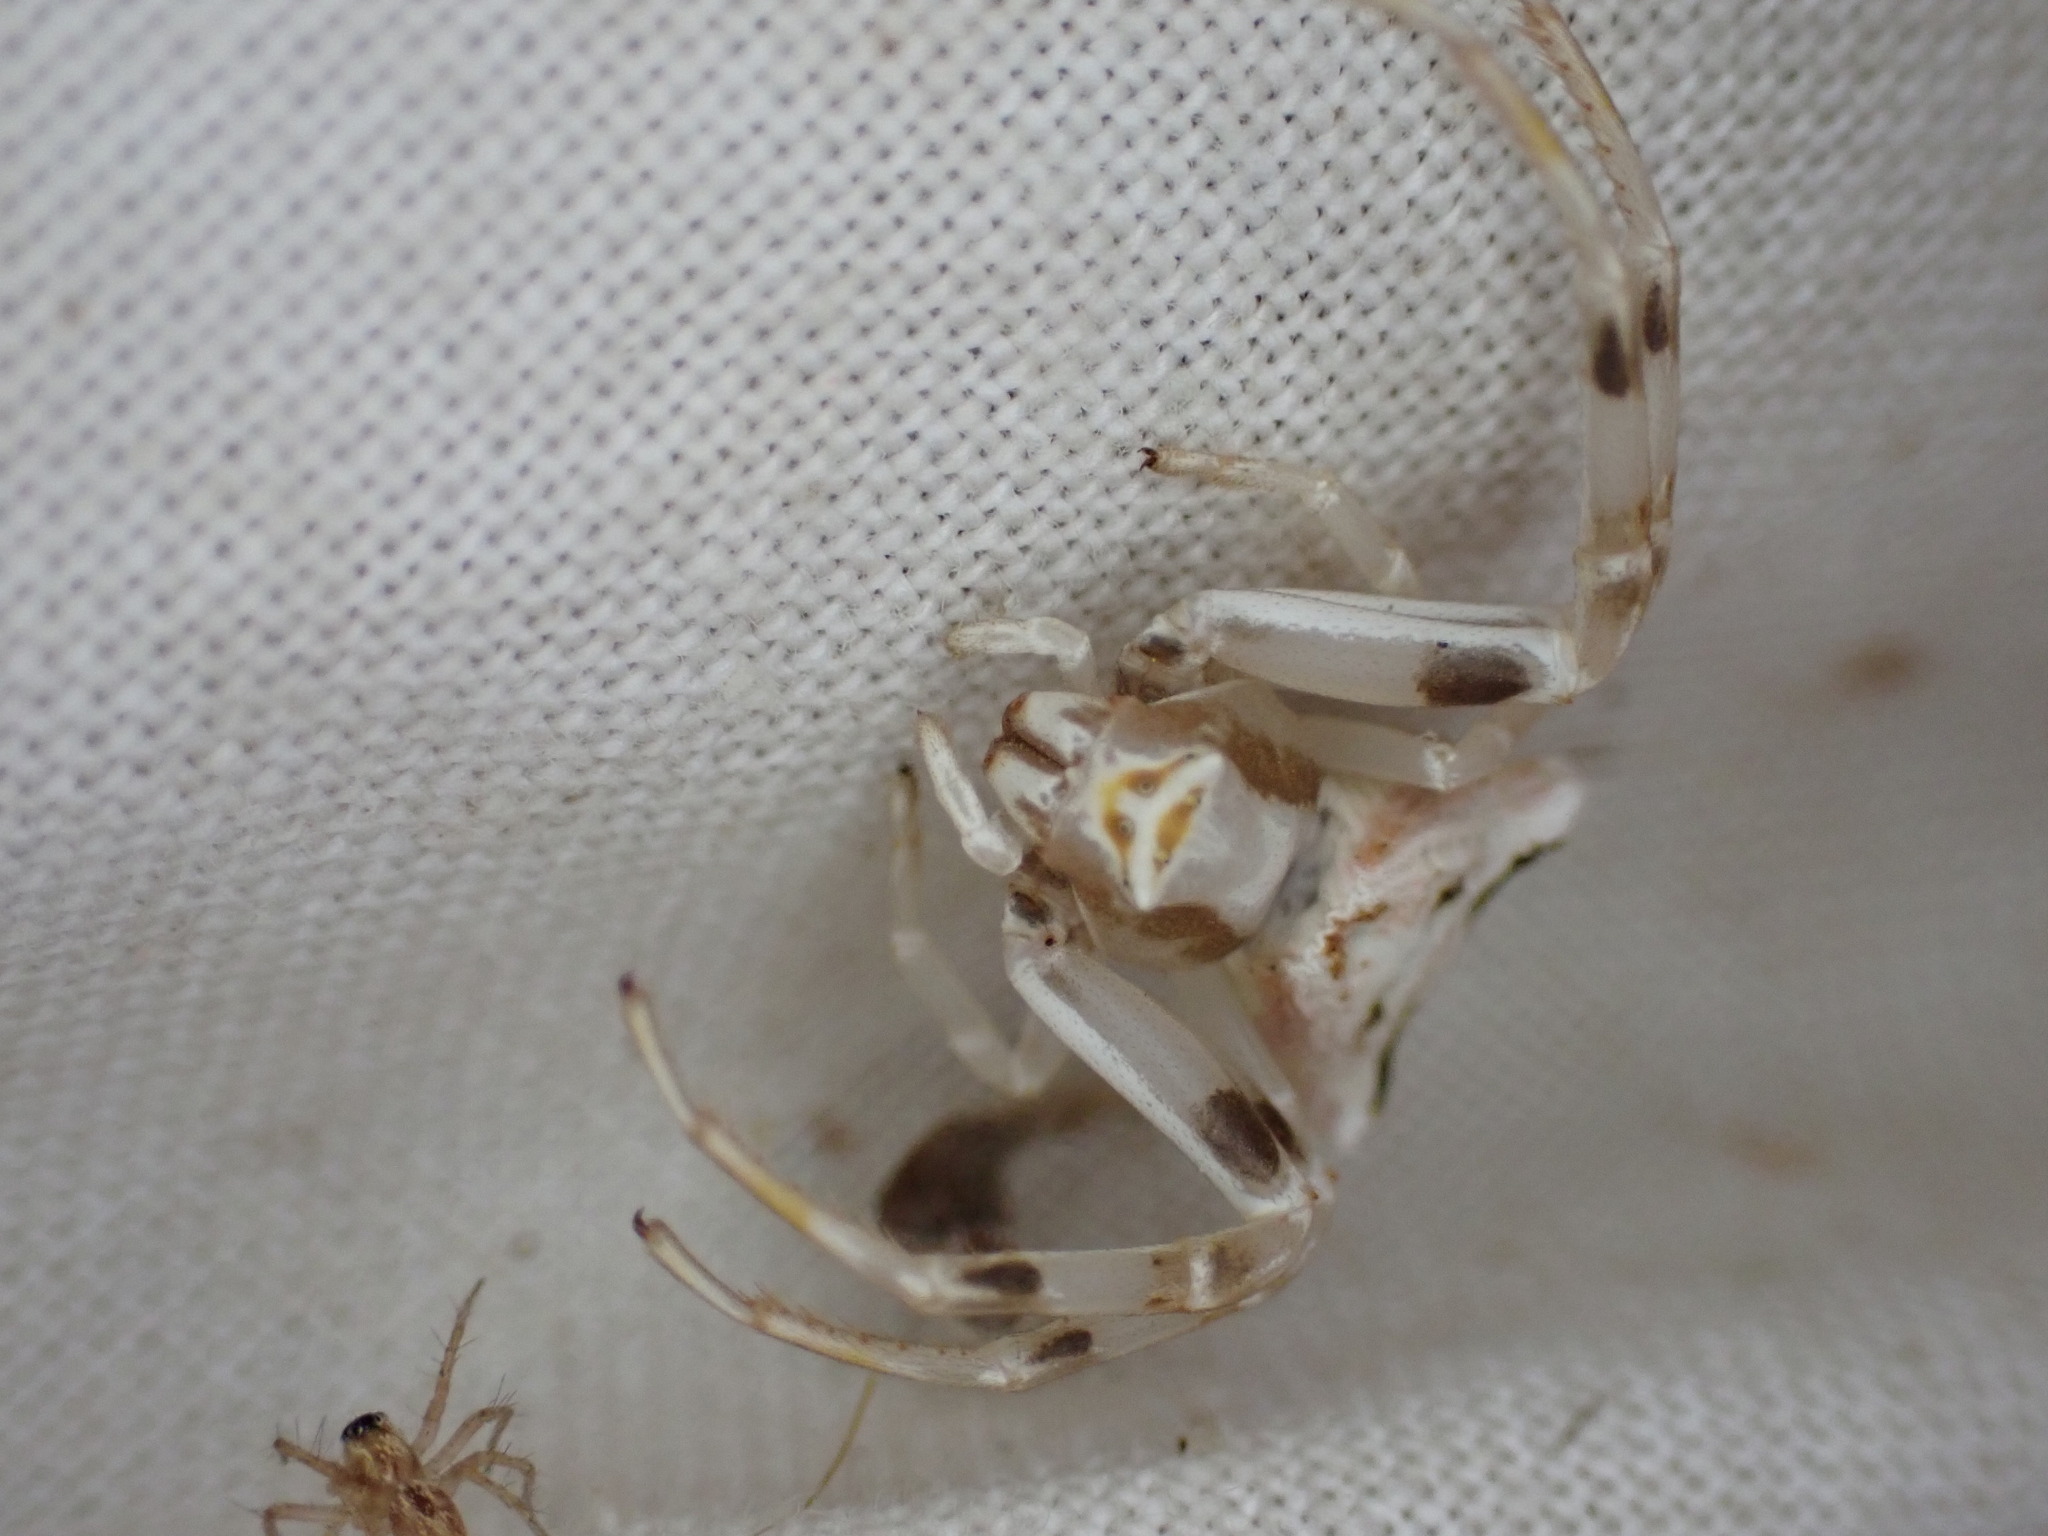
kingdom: Animalia
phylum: Arthropoda
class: Arachnida
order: Araneae
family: Thomisidae
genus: Thomisus
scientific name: Thomisus onustus
